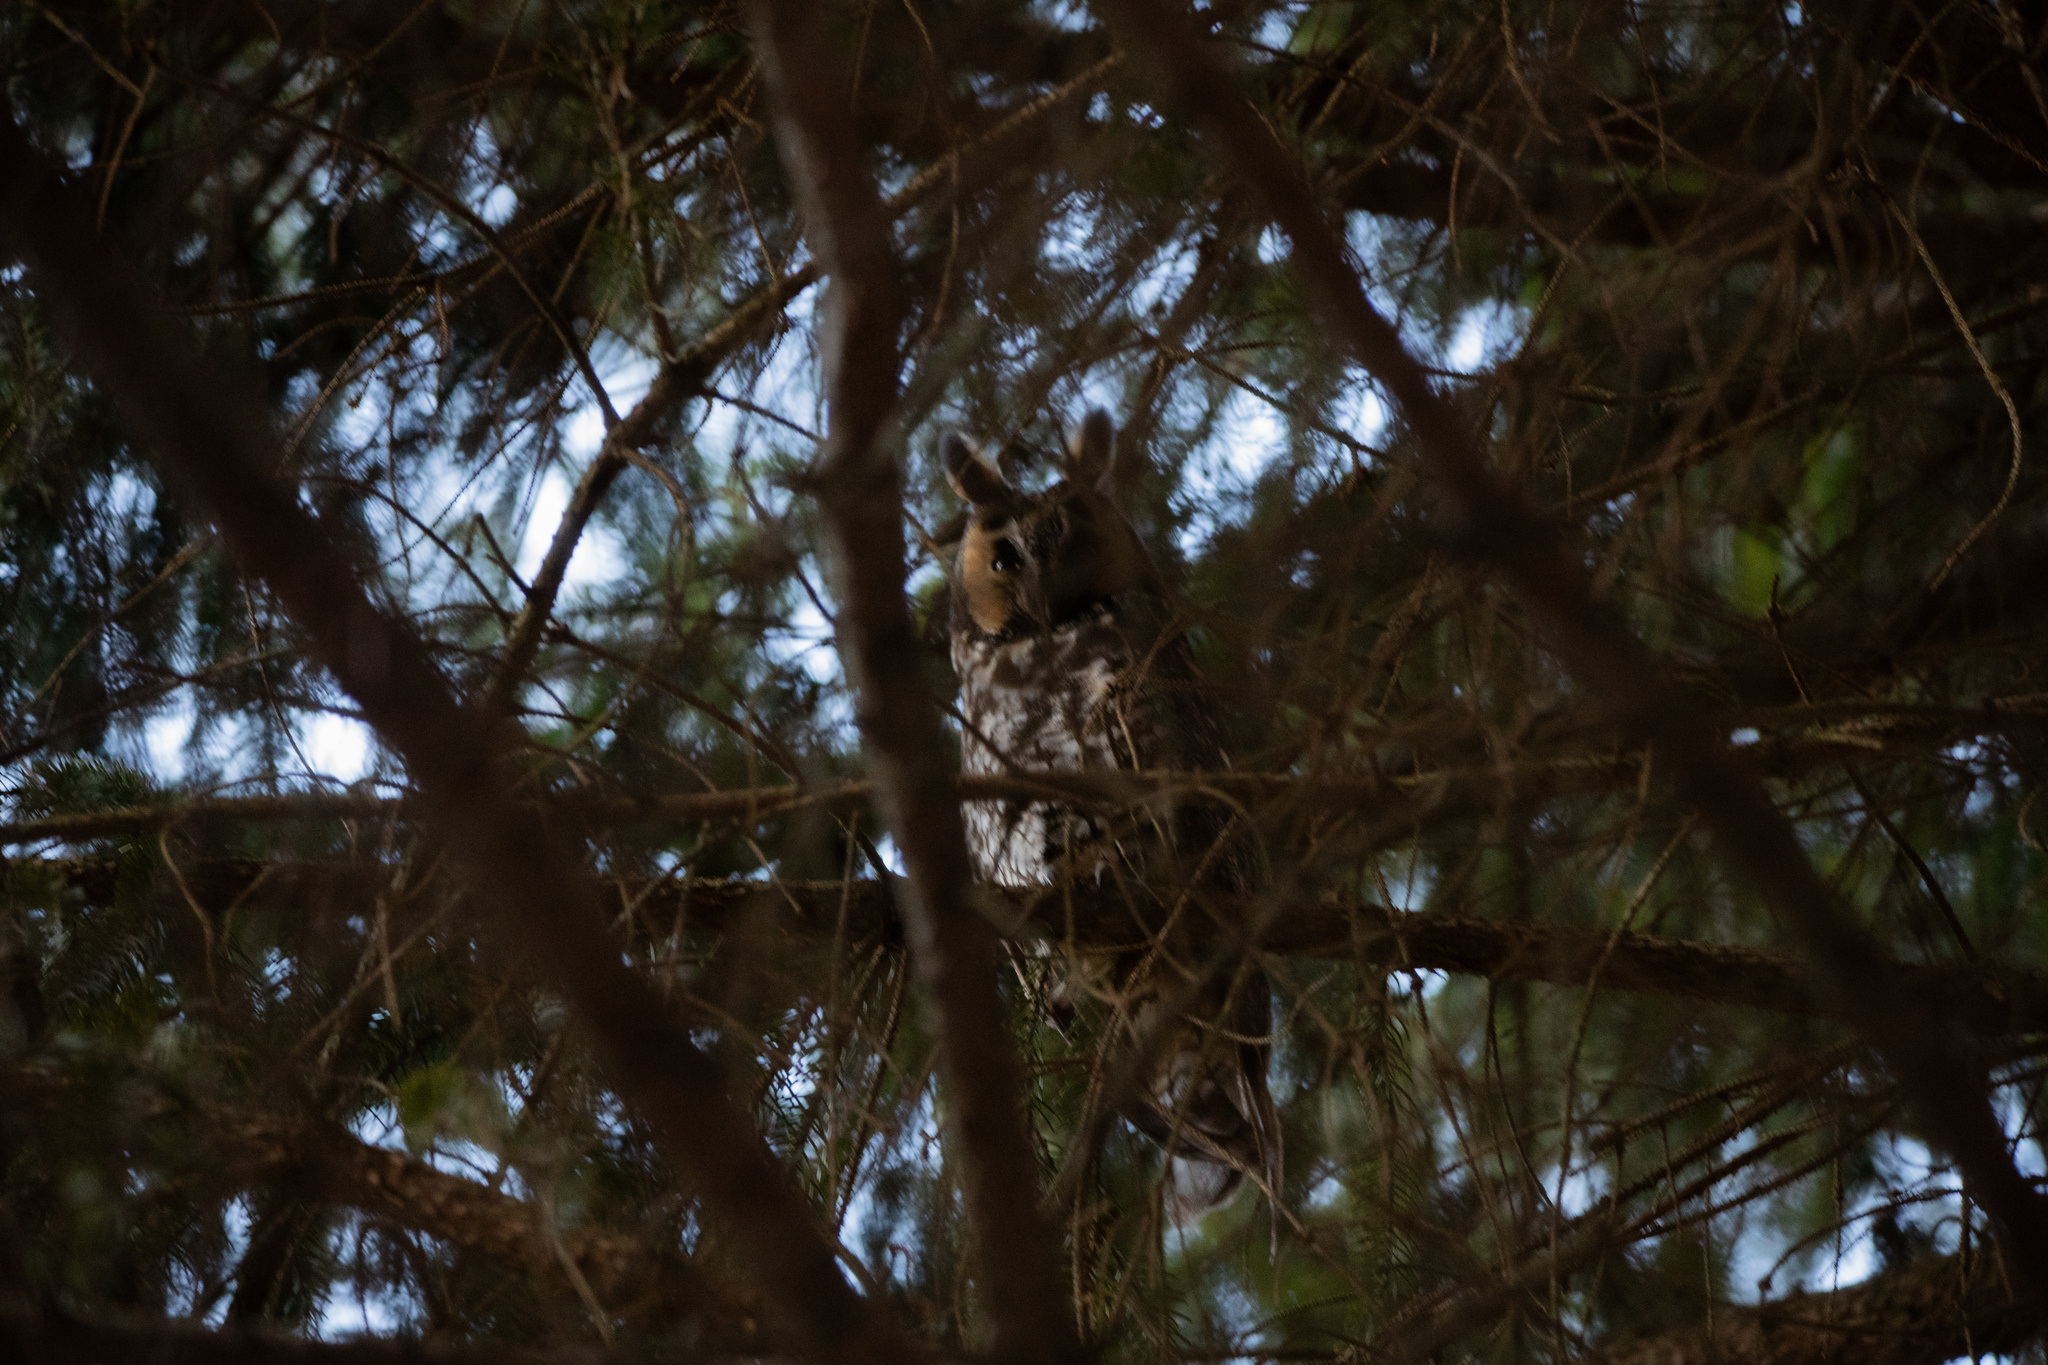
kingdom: Animalia
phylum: Chordata
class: Aves
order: Strigiformes
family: Strigidae
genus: Asio
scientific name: Asio otus
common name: Long-eared owl
